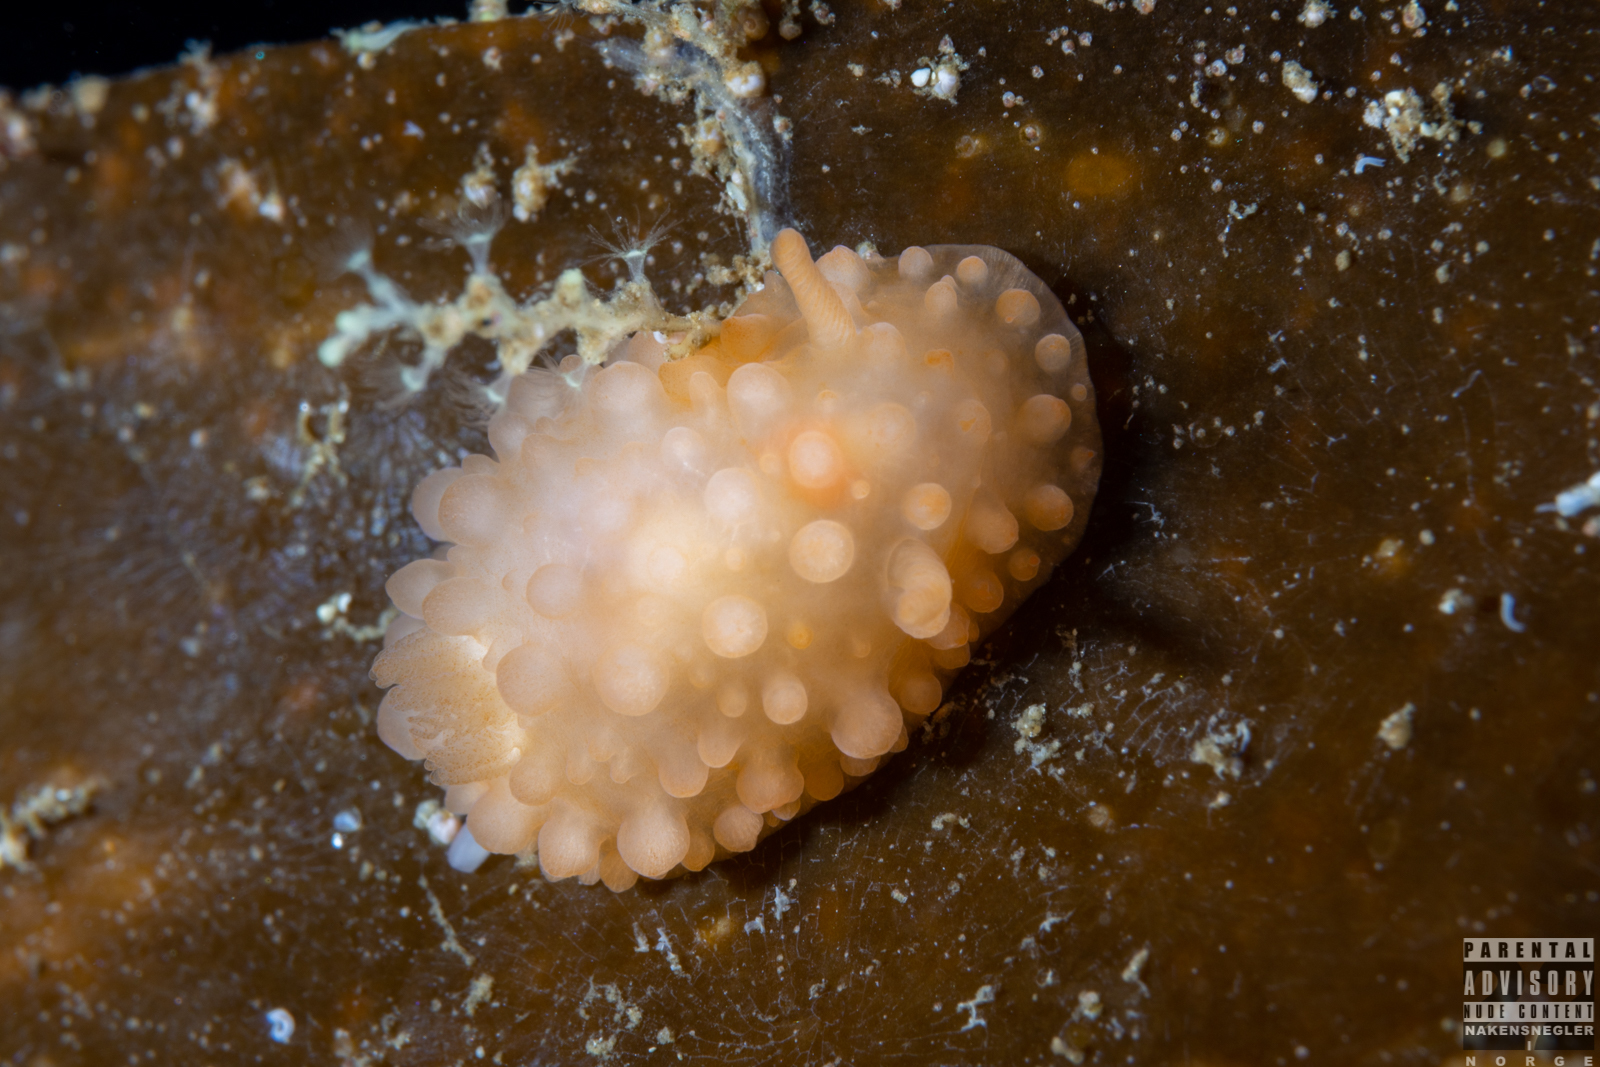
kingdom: Animalia
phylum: Mollusca
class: Gastropoda
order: Nudibranchia
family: Onchidorididae
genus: Adalaria
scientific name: Adalaria loveni
